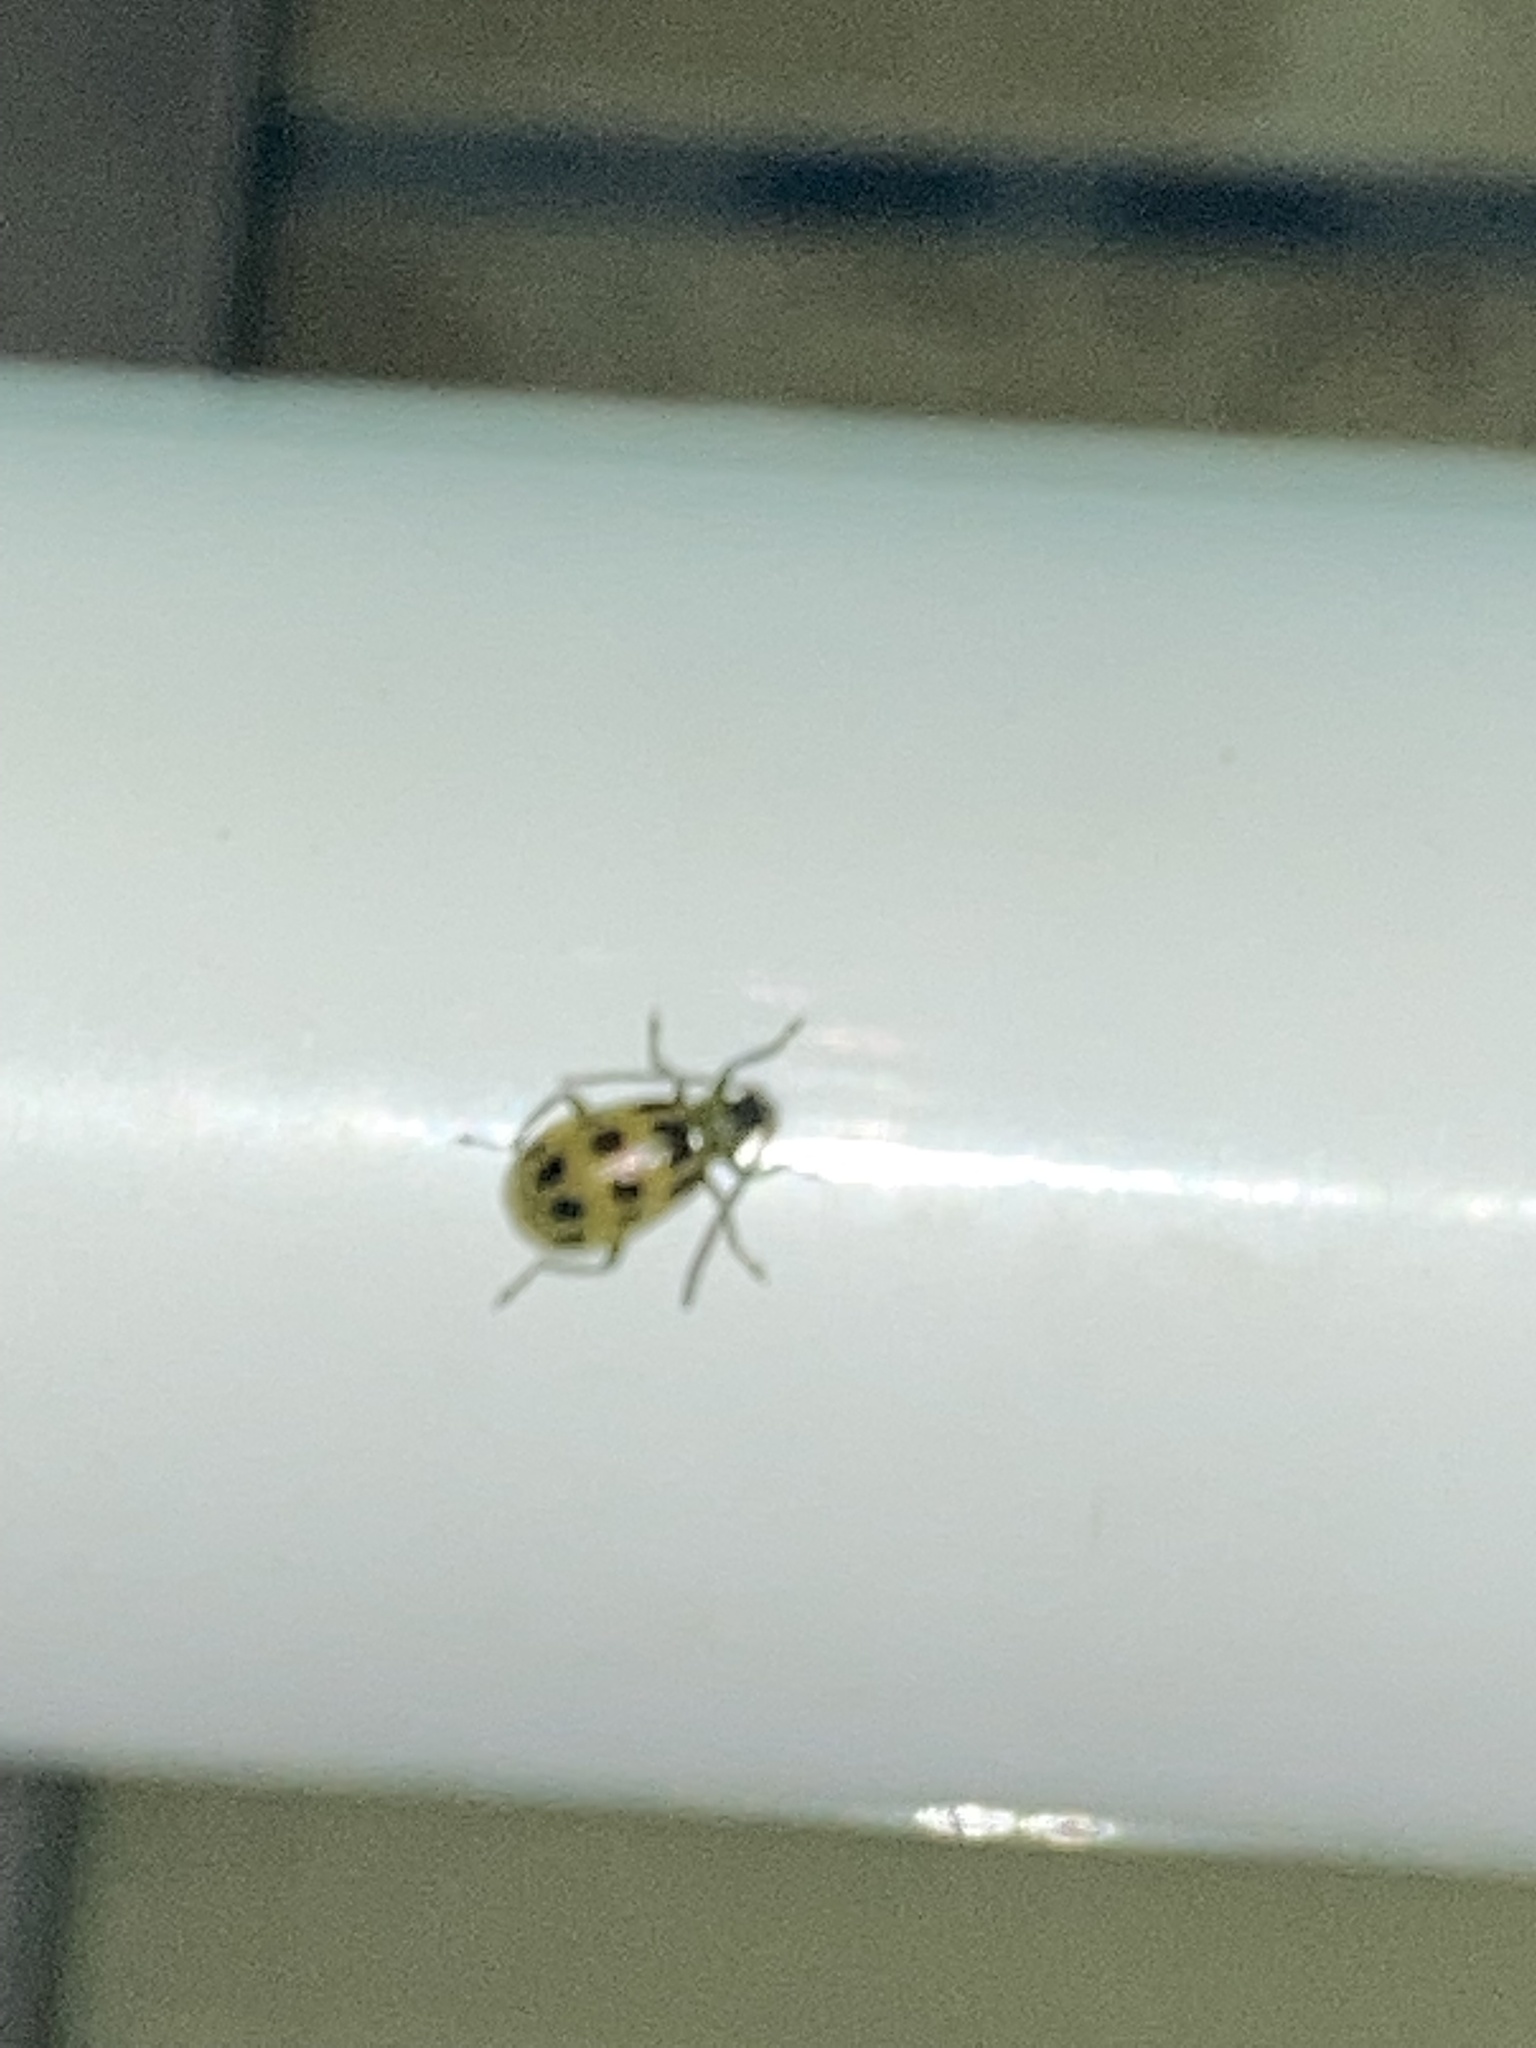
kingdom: Animalia
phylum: Arthropoda
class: Insecta
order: Coleoptera
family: Chrysomelidae
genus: Diabrotica
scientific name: Diabrotica undecimpunctata
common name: Spotted cucumber beetle
